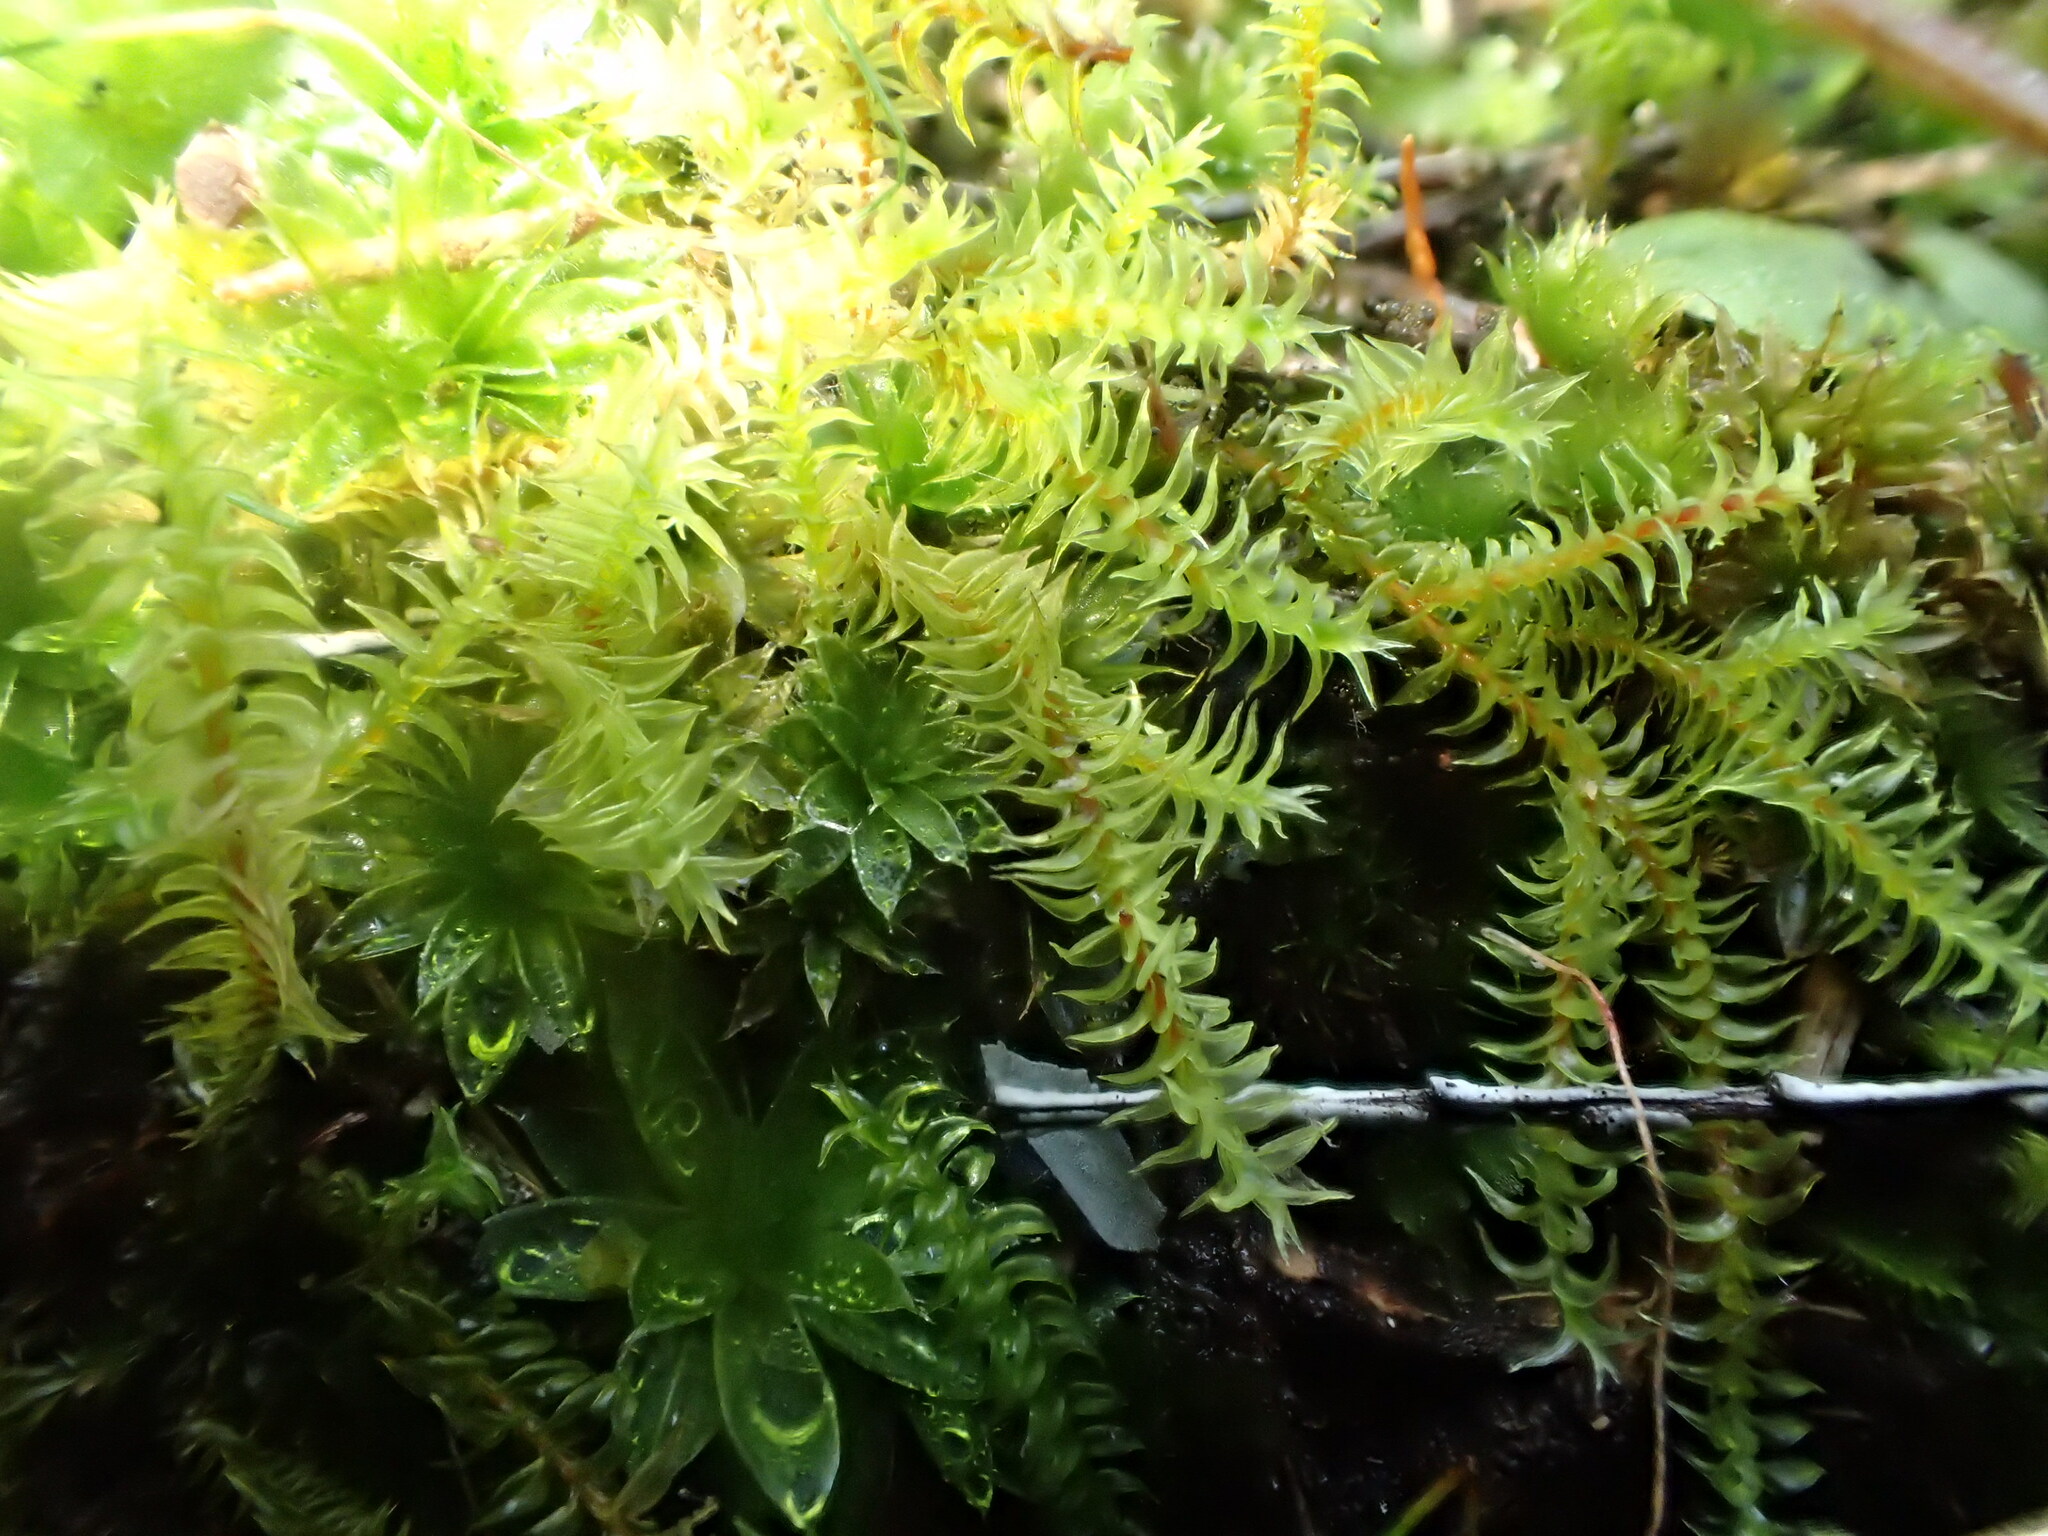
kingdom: Plantae
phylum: Bryophyta
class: Bryopsida
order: Pottiales
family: Pottiaceae
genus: Triquetrella
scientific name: Triquetrella papillata
